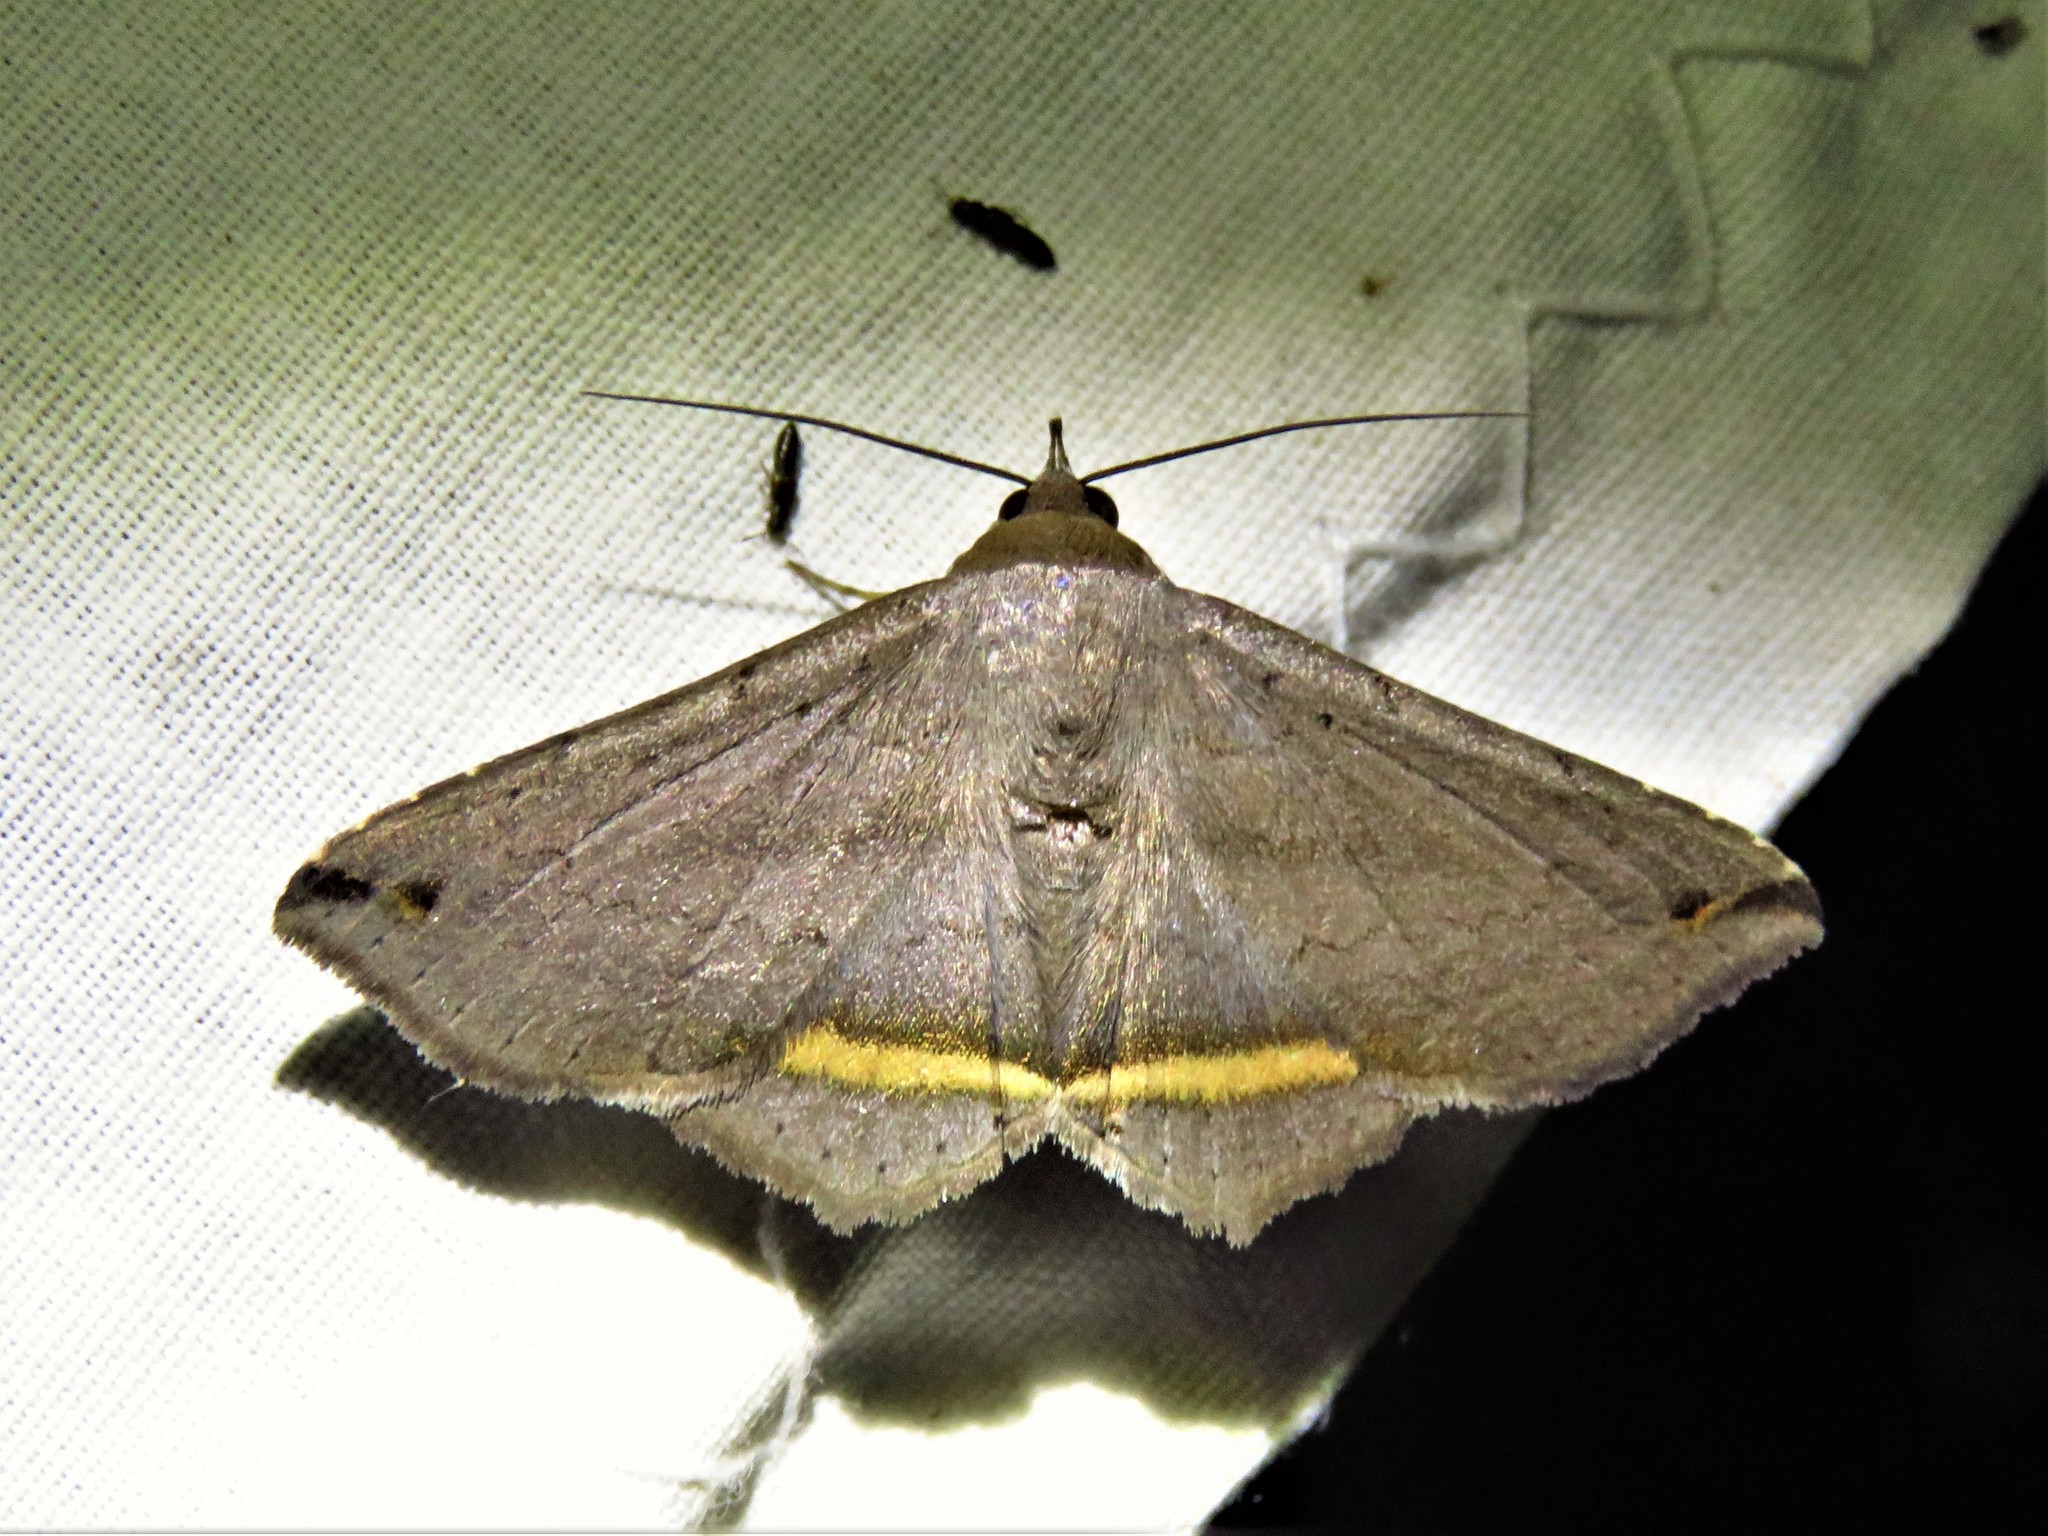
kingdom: Animalia
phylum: Arthropoda
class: Insecta
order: Lepidoptera
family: Erebidae
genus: Lesmone
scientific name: Lesmone formularis
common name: Lesmone moth
